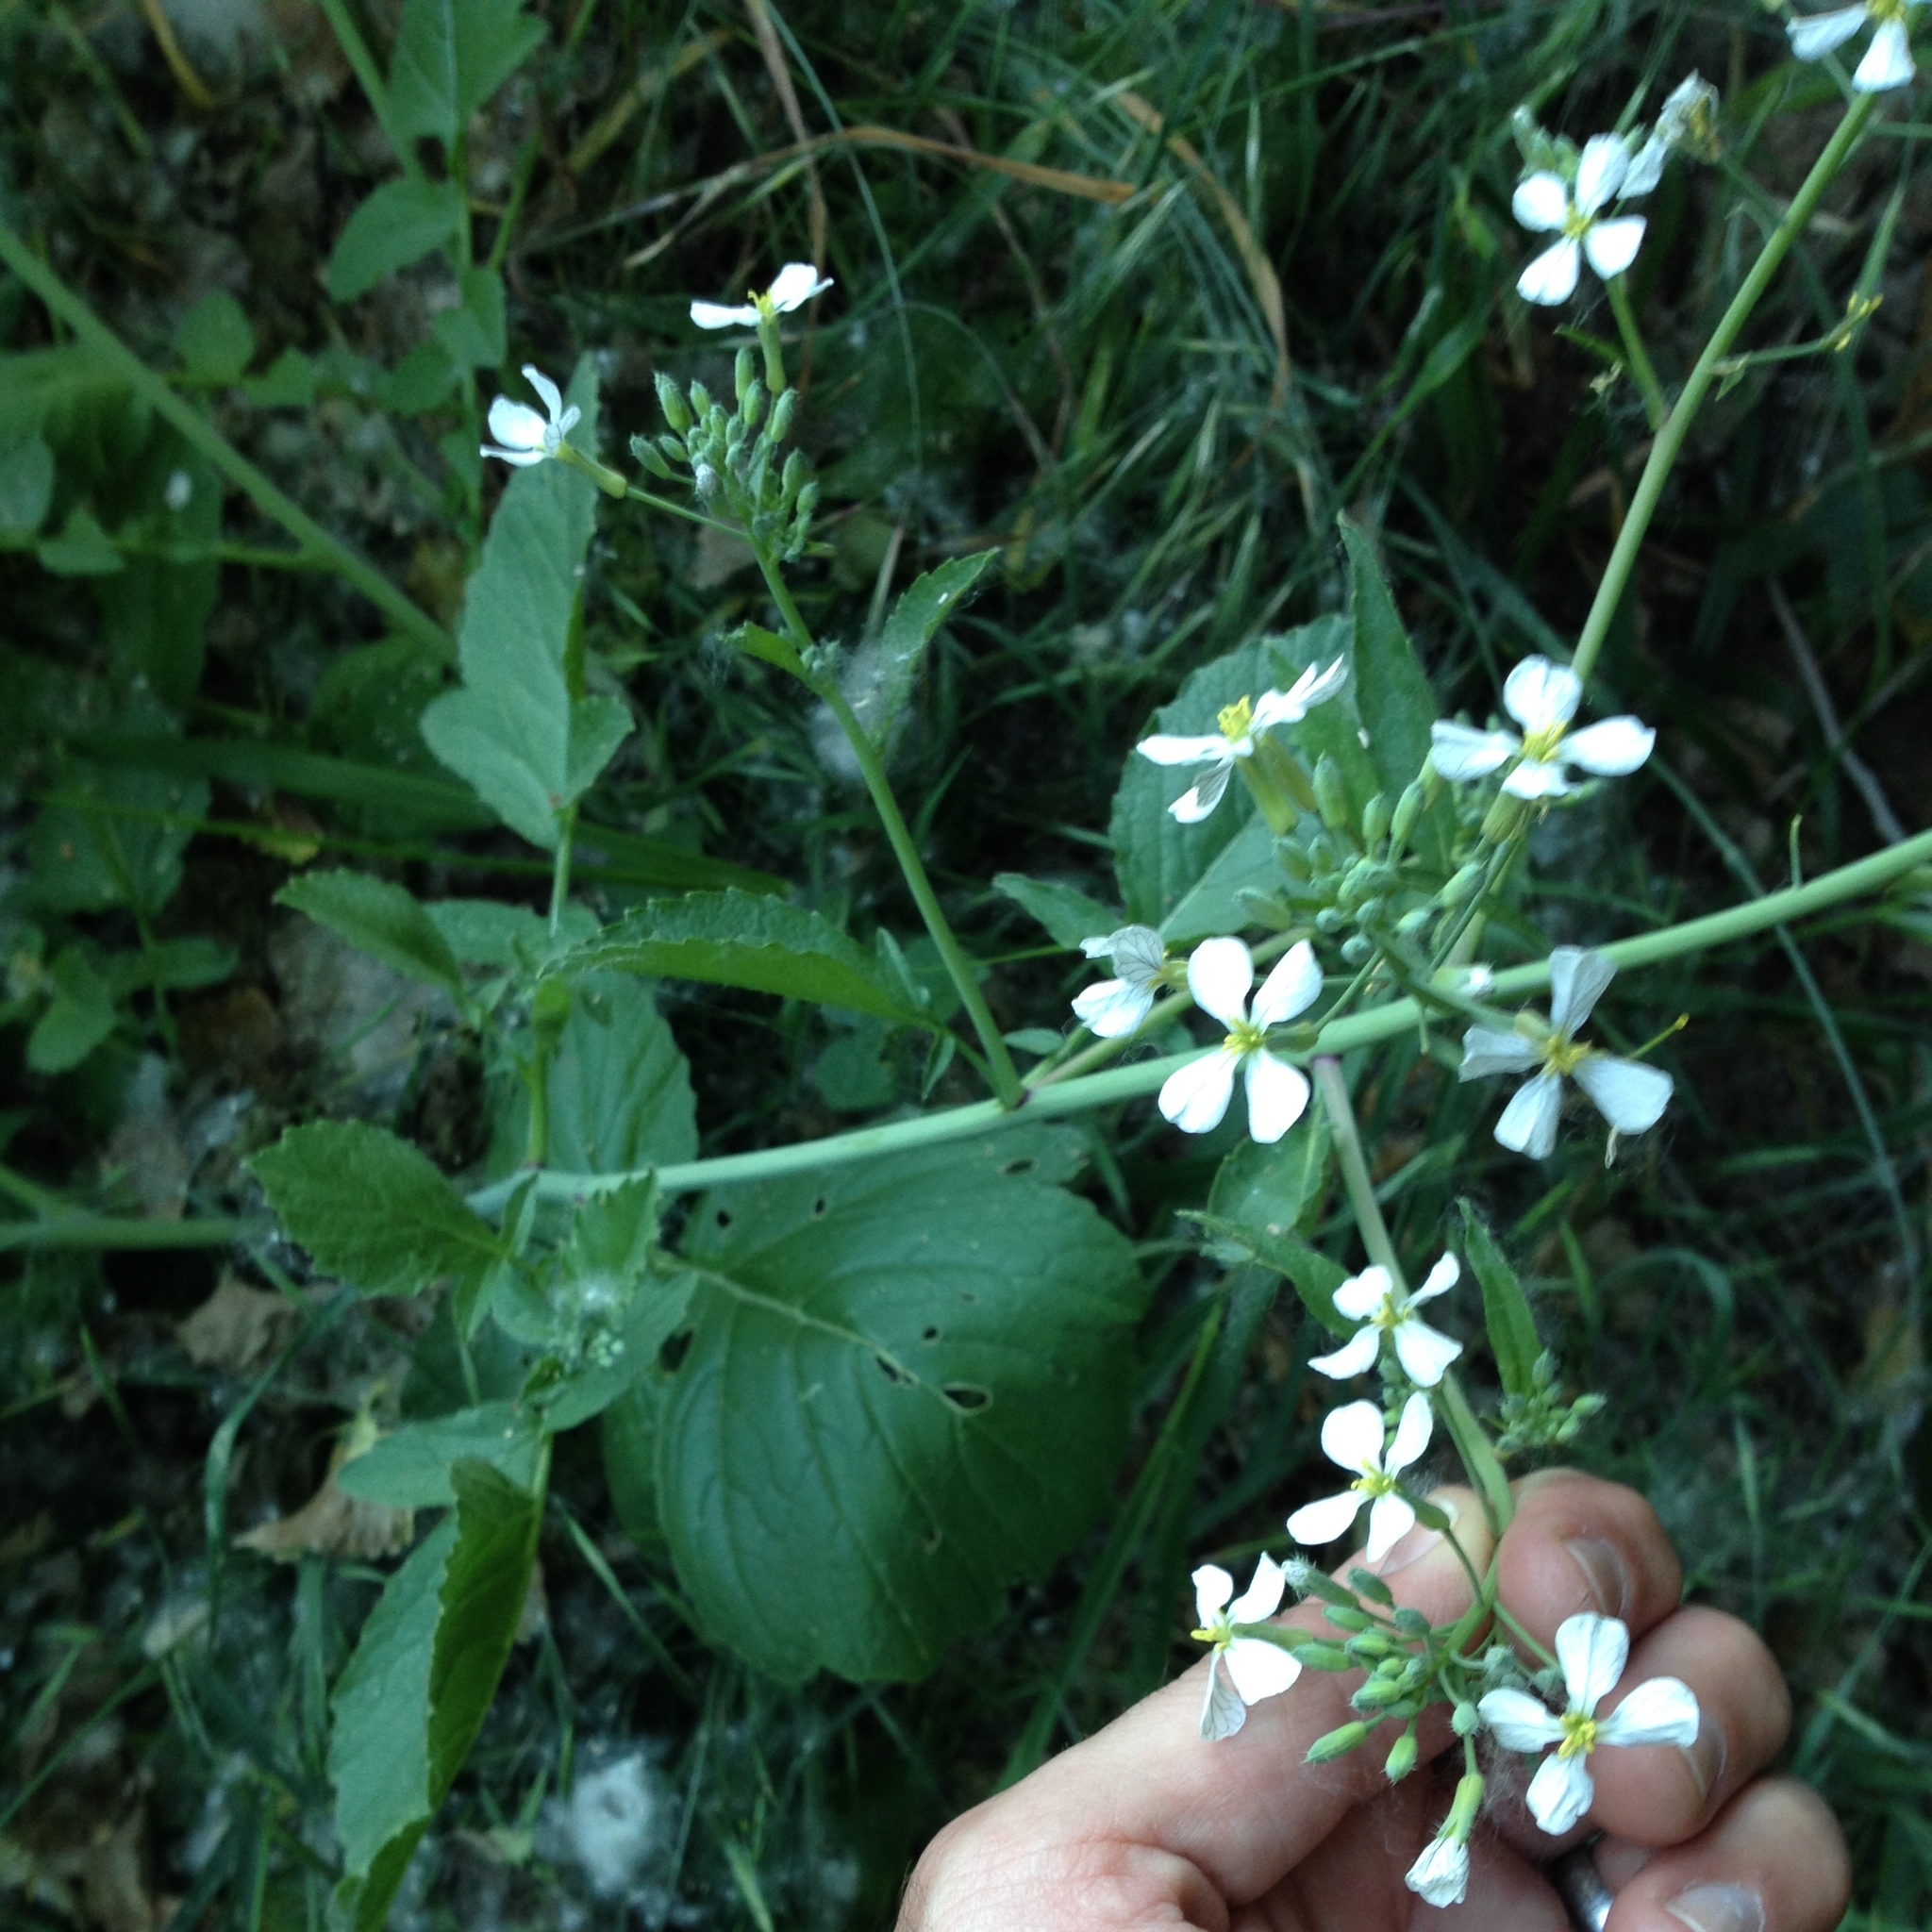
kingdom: Plantae
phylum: Tracheophyta
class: Magnoliopsida
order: Brassicales
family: Brassicaceae
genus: Raphanus
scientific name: Raphanus
